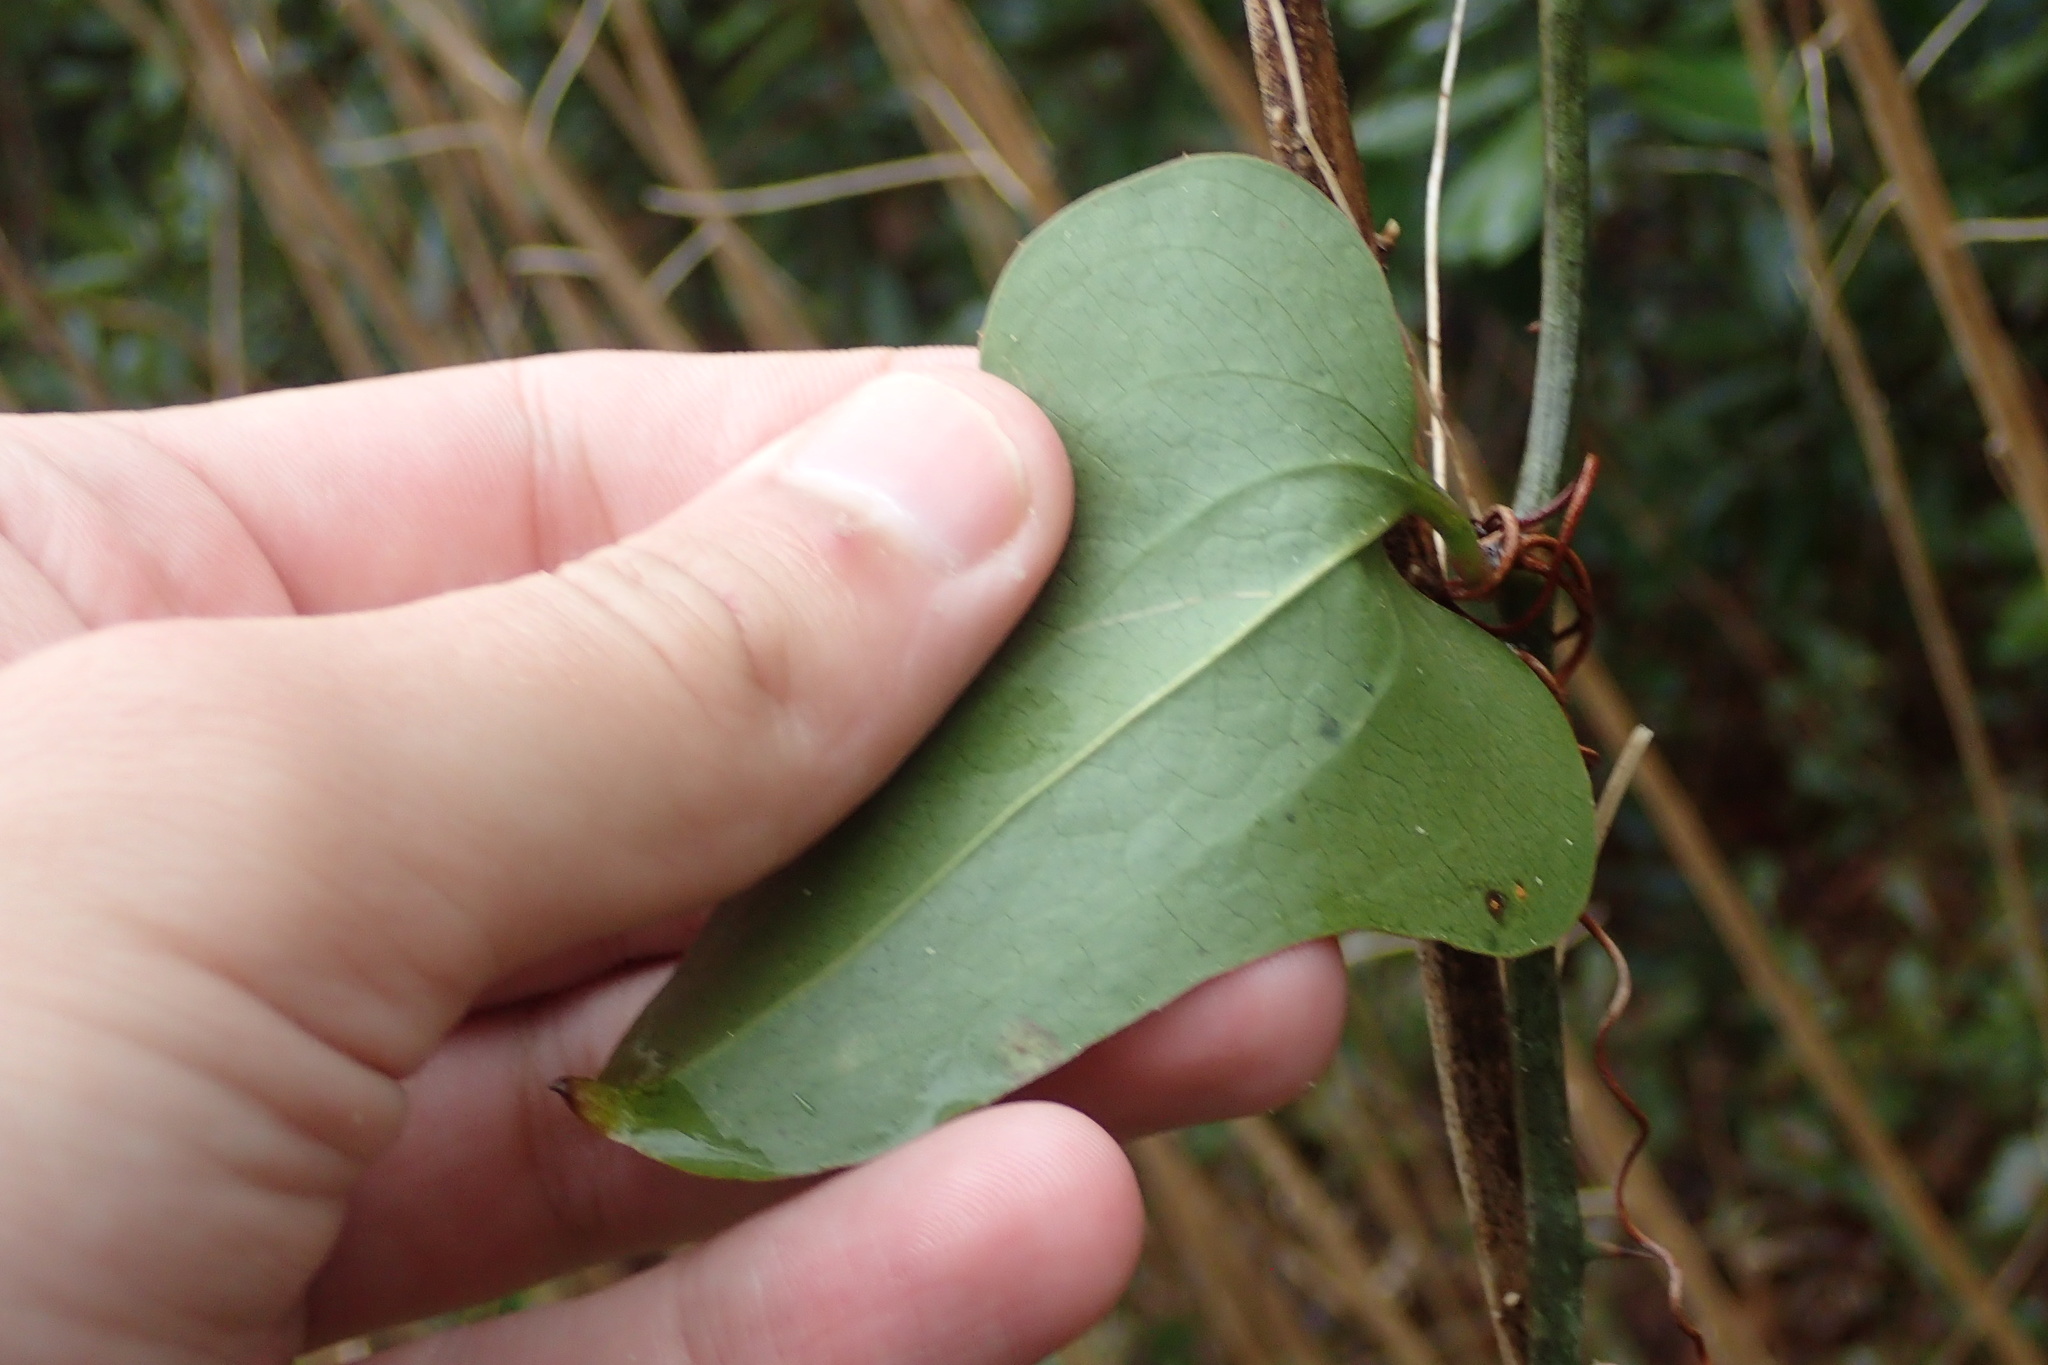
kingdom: Plantae
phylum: Tracheophyta
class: Liliopsida
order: Liliales
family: Smilacaceae
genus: Smilax
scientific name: Smilax bona-nox
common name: Catbrier
